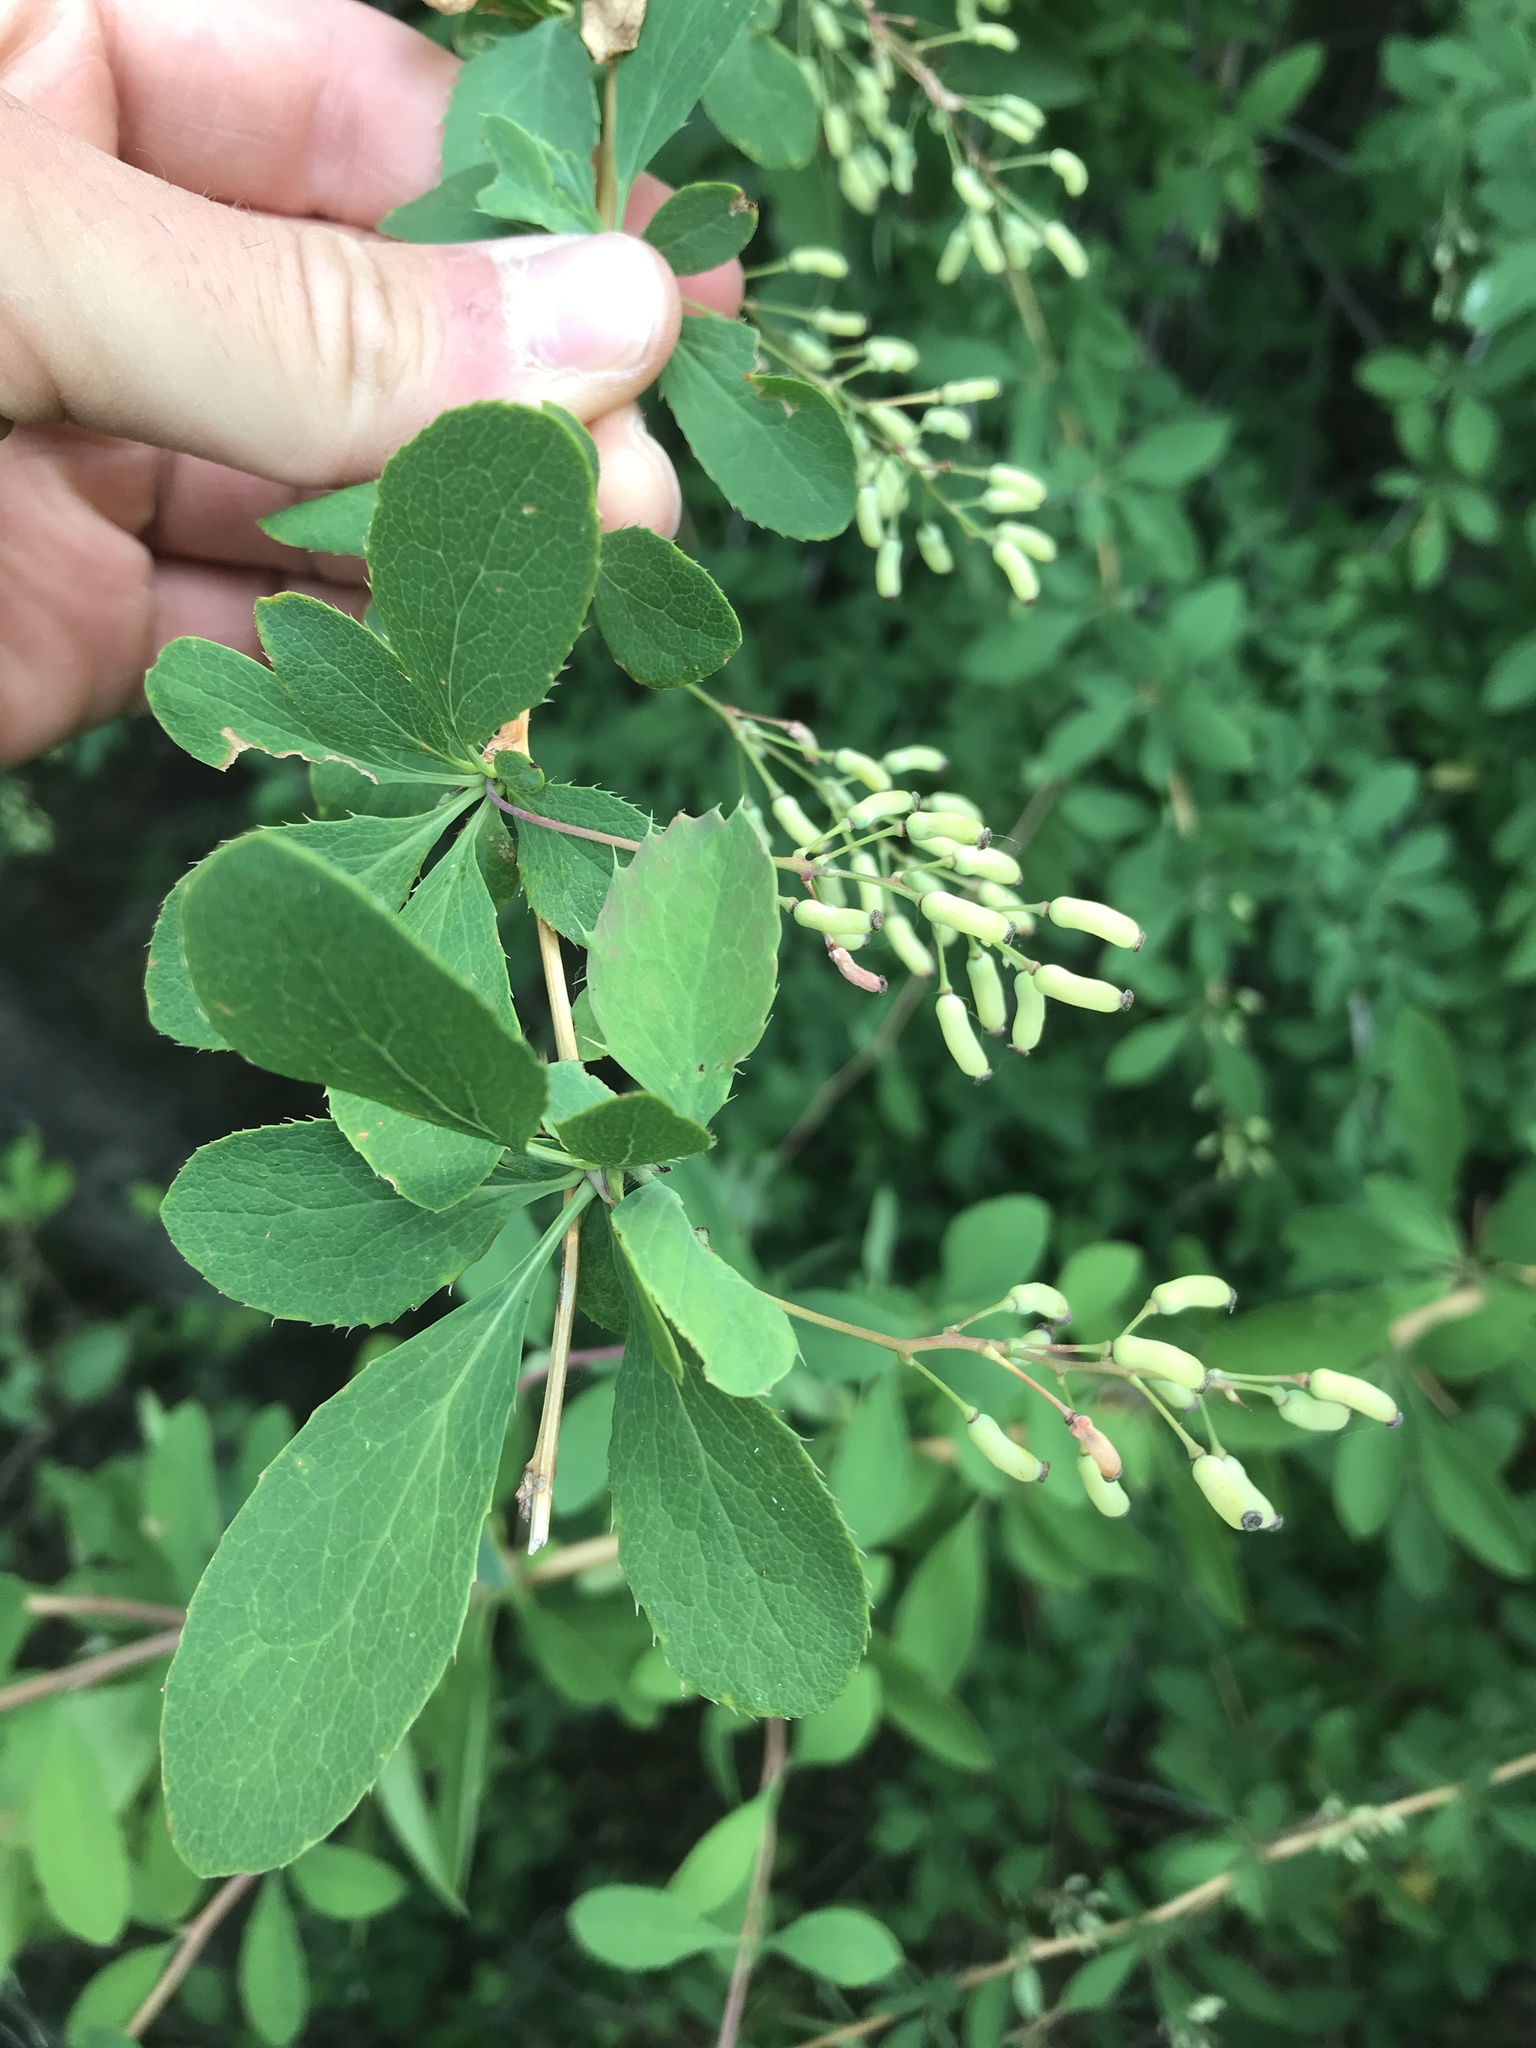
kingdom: Plantae
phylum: Tracheophyta
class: Magnoliopsida
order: Ranunculales
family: Berberidaceae
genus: Berberis
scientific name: Berberis vulgaris
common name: Barberry
